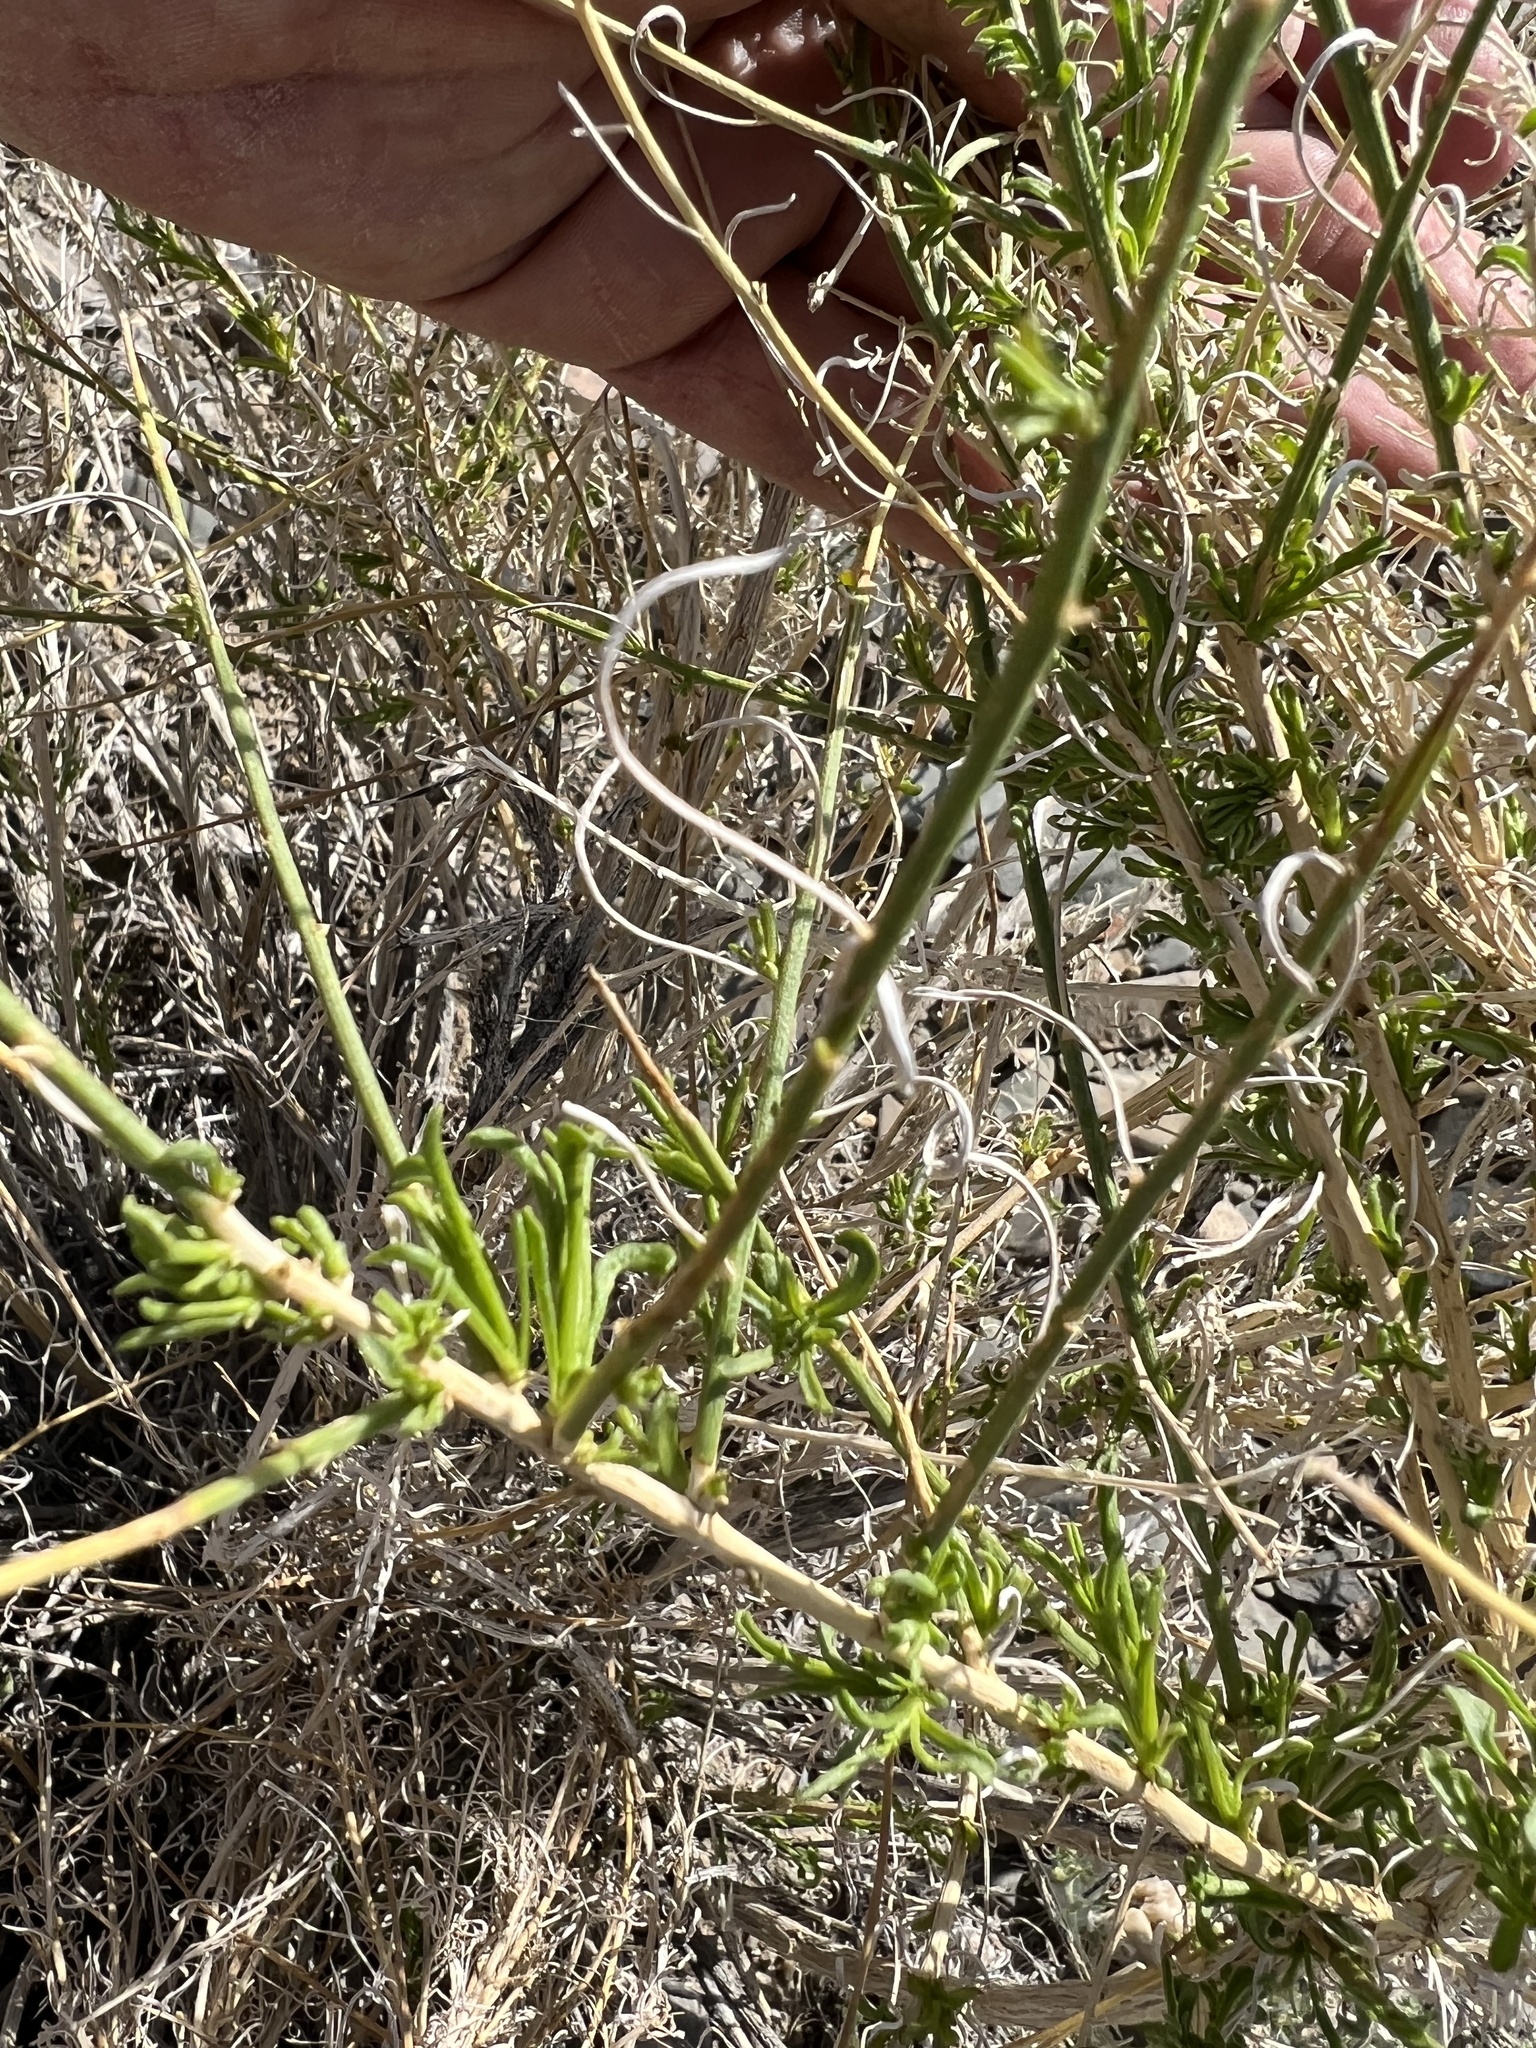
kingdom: Plantae
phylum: Tracheophyta
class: Magnoliopsida
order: Asterales
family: Asteraceae
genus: Ambrosia
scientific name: Ambrosia salsola
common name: Burrobrush
